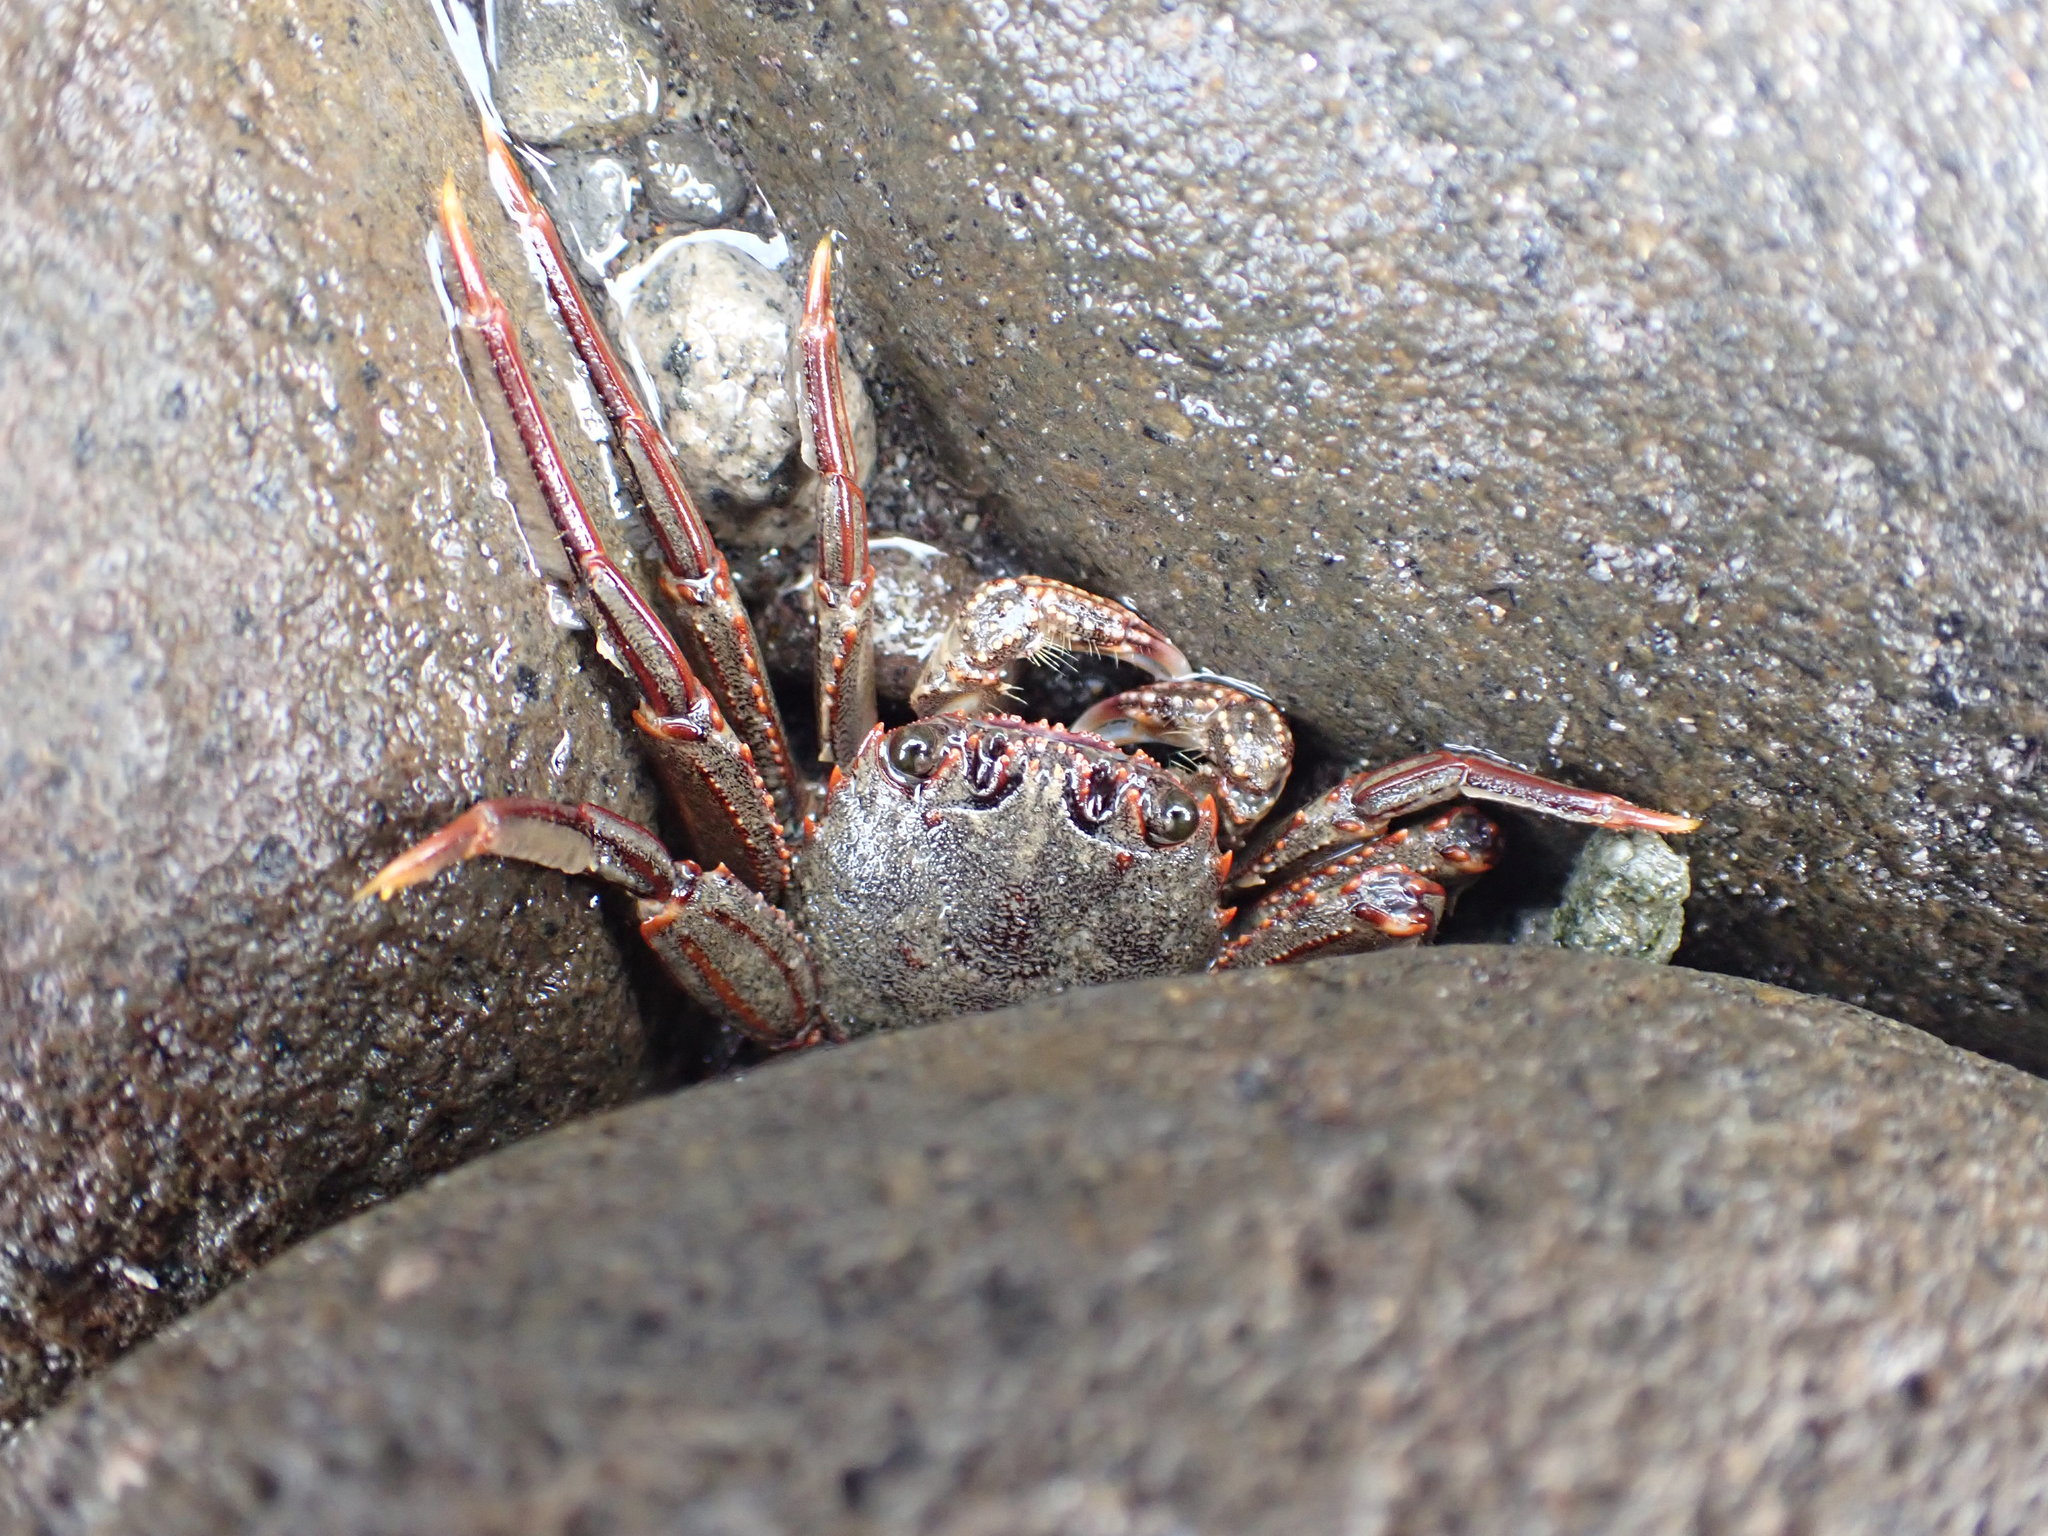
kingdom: Animalia
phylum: Arthropoda
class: Malacostraca
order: Decapoda
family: Plagusiidae
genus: Guinusia
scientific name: Guinusia chabrus
